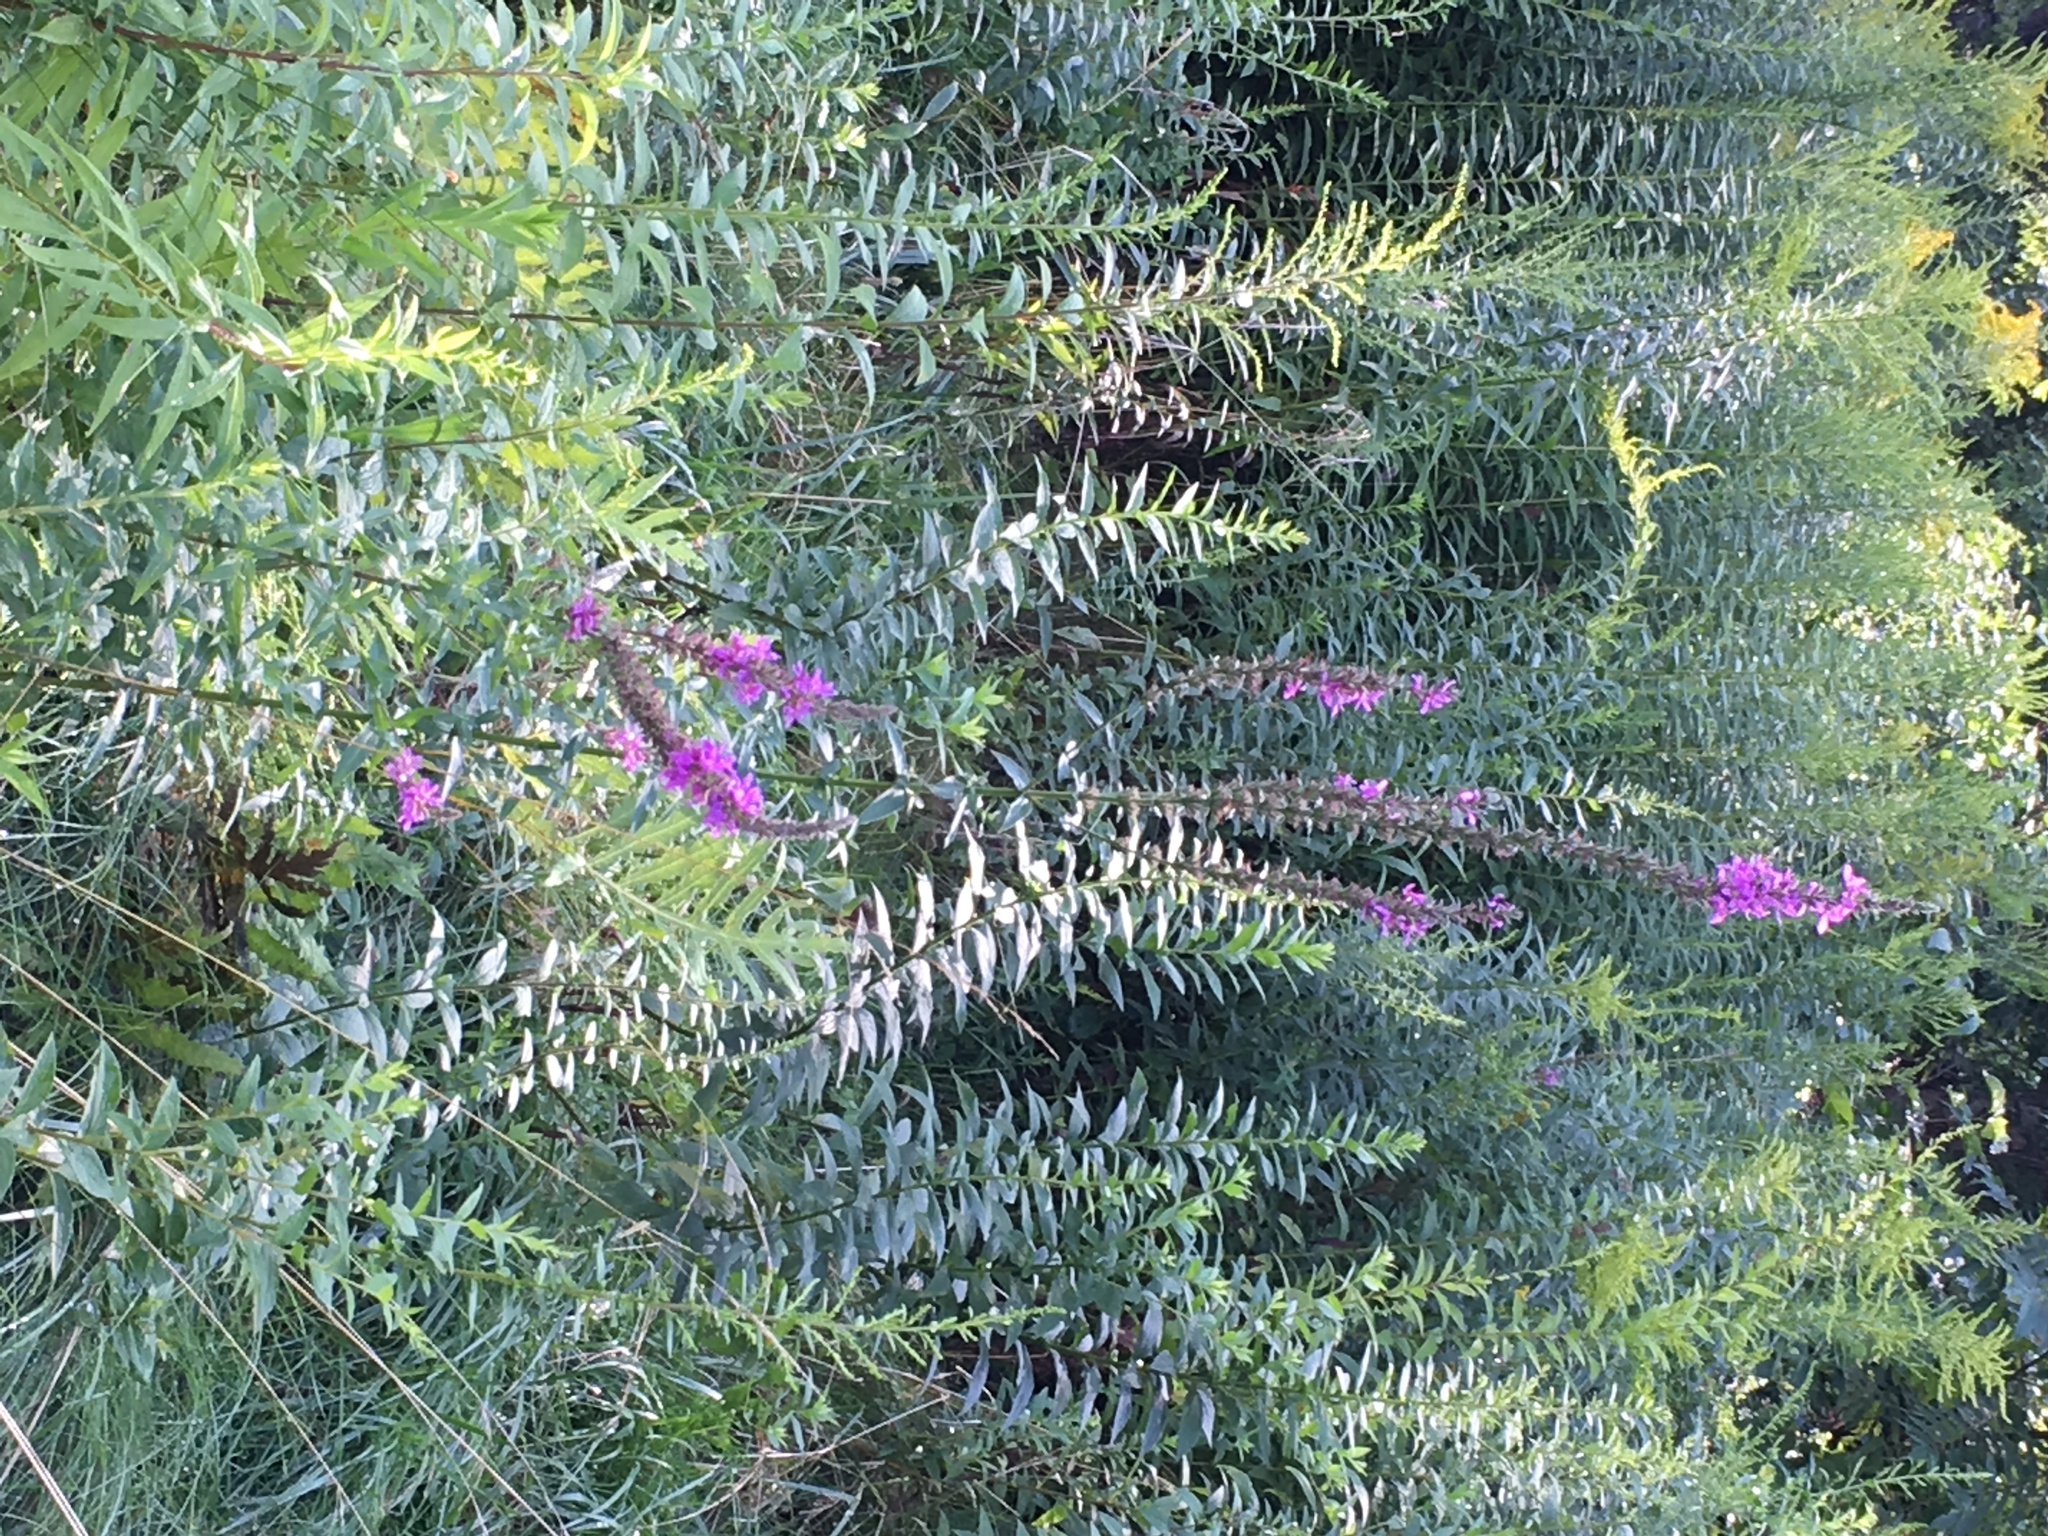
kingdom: Plantae
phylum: Tracheophyta
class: Magnoliopsida
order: Myrtales
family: Lythraceae
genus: Lythrum
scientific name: Lythrum salicaria
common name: Purple loosestrife
